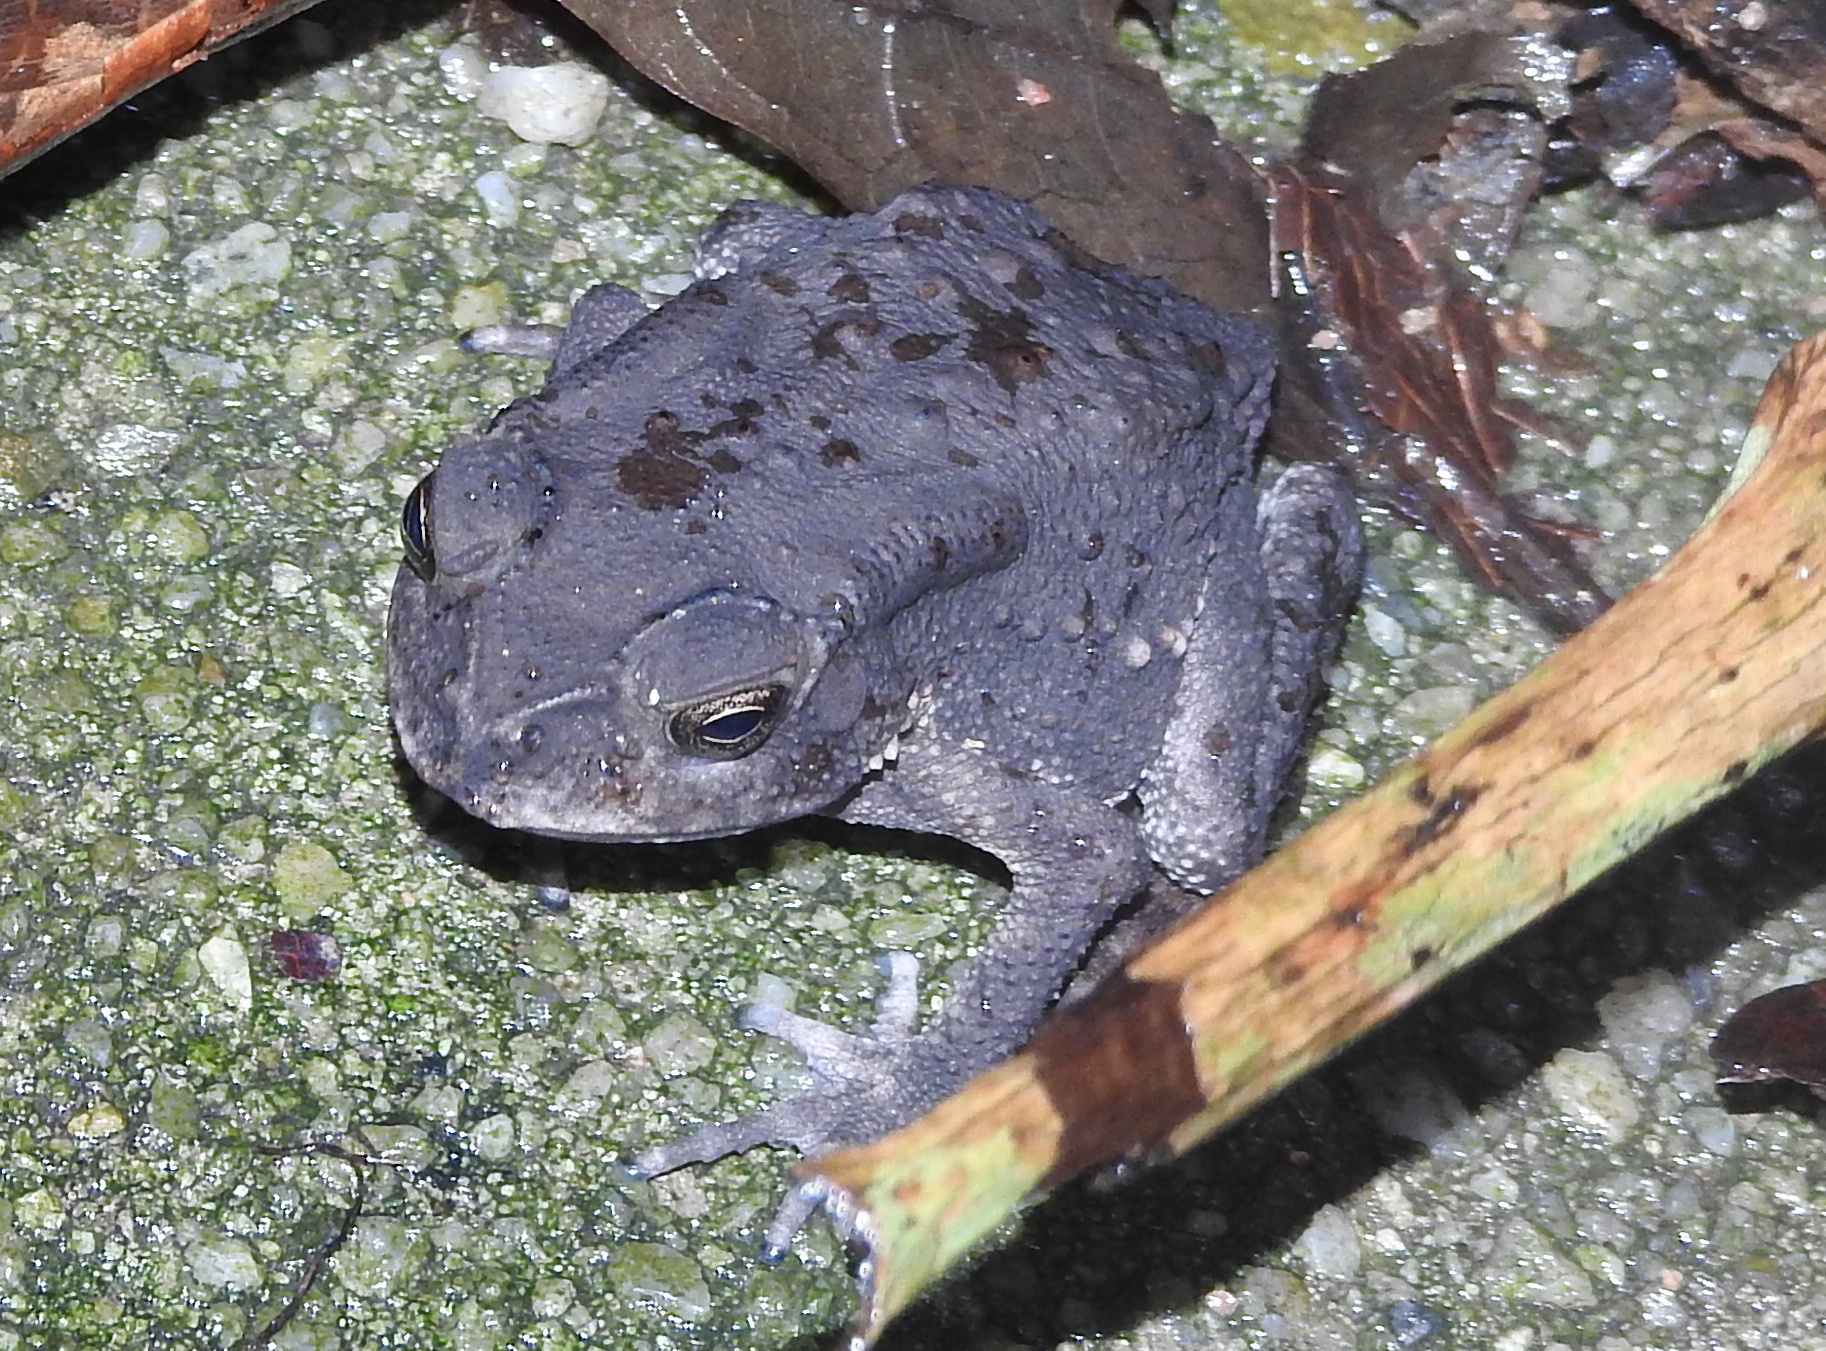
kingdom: Animalia
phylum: Chordata
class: Amphibia
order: Anura
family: Bufonidae
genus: Duttaphrynus
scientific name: Duttaphrynus melanostictus
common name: Common sunda toad
